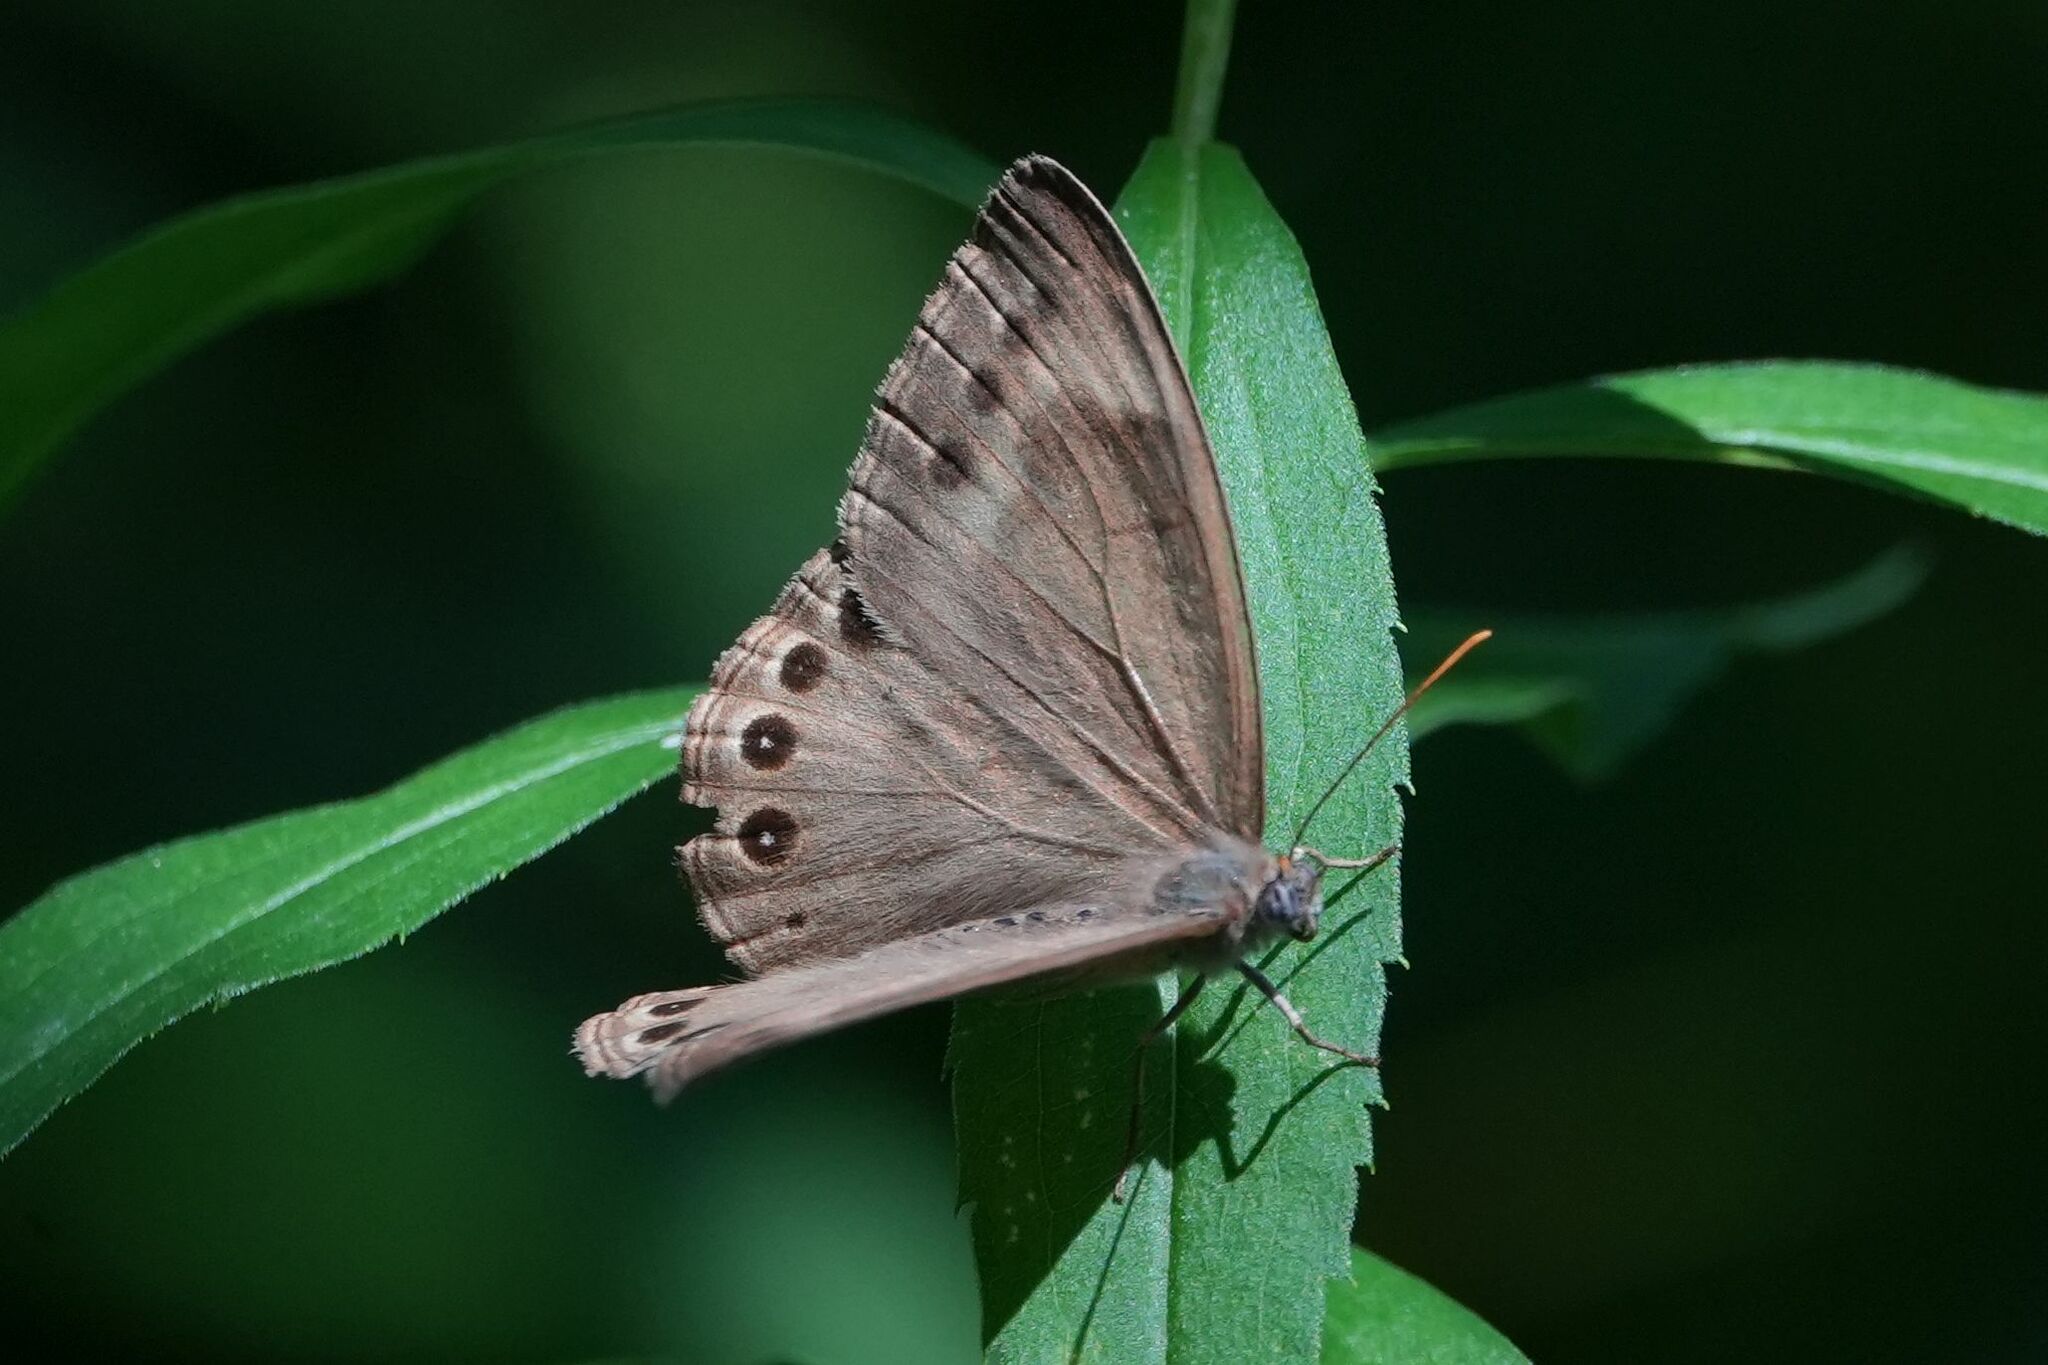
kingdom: Animalia
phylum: Arthropoda
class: Insecta
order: Lepidoptera
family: Nymphalidae
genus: Lethe
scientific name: Lethe eurydice
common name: Eyed brown
